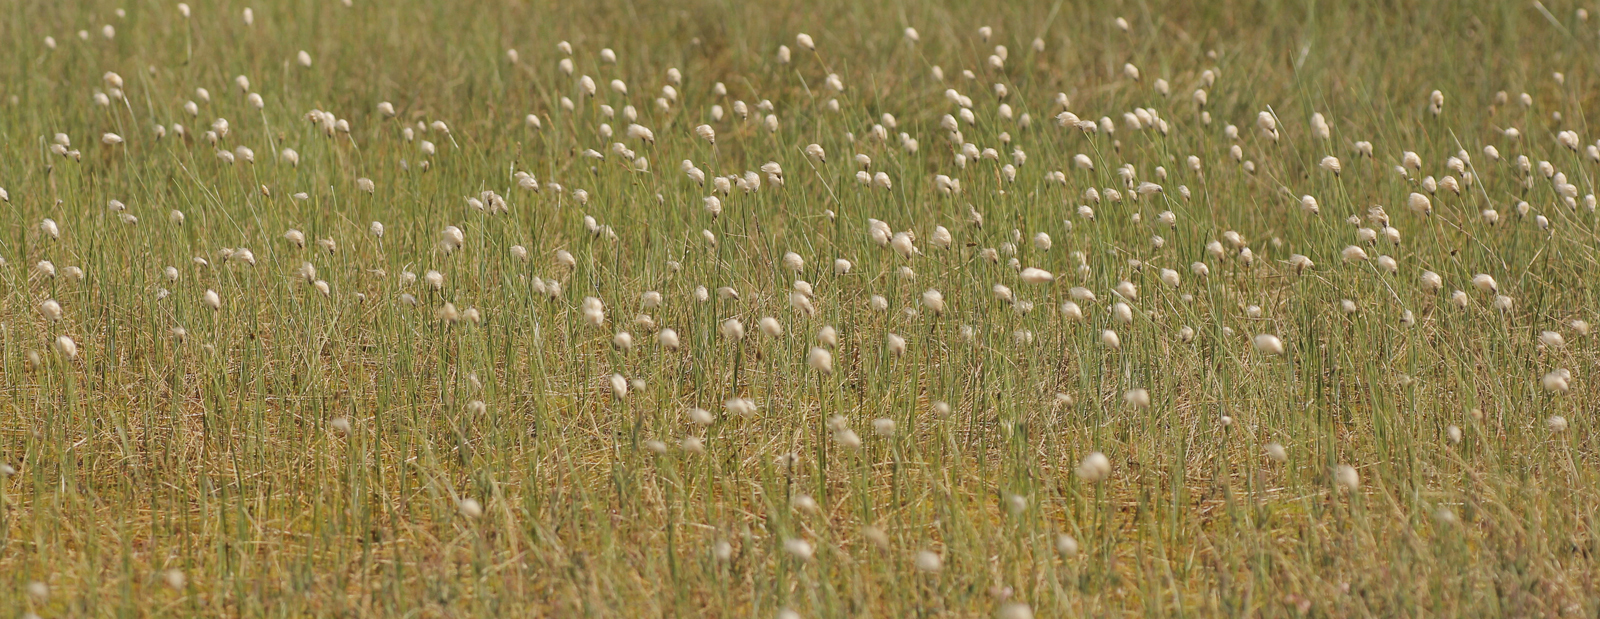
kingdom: Plantae
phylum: Tracheophyta
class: Liliopsida
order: Poales
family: Cyperaceae
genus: Eriophorum
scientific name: Eriophorum chamissonis
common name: Chamisso's cottongrass
